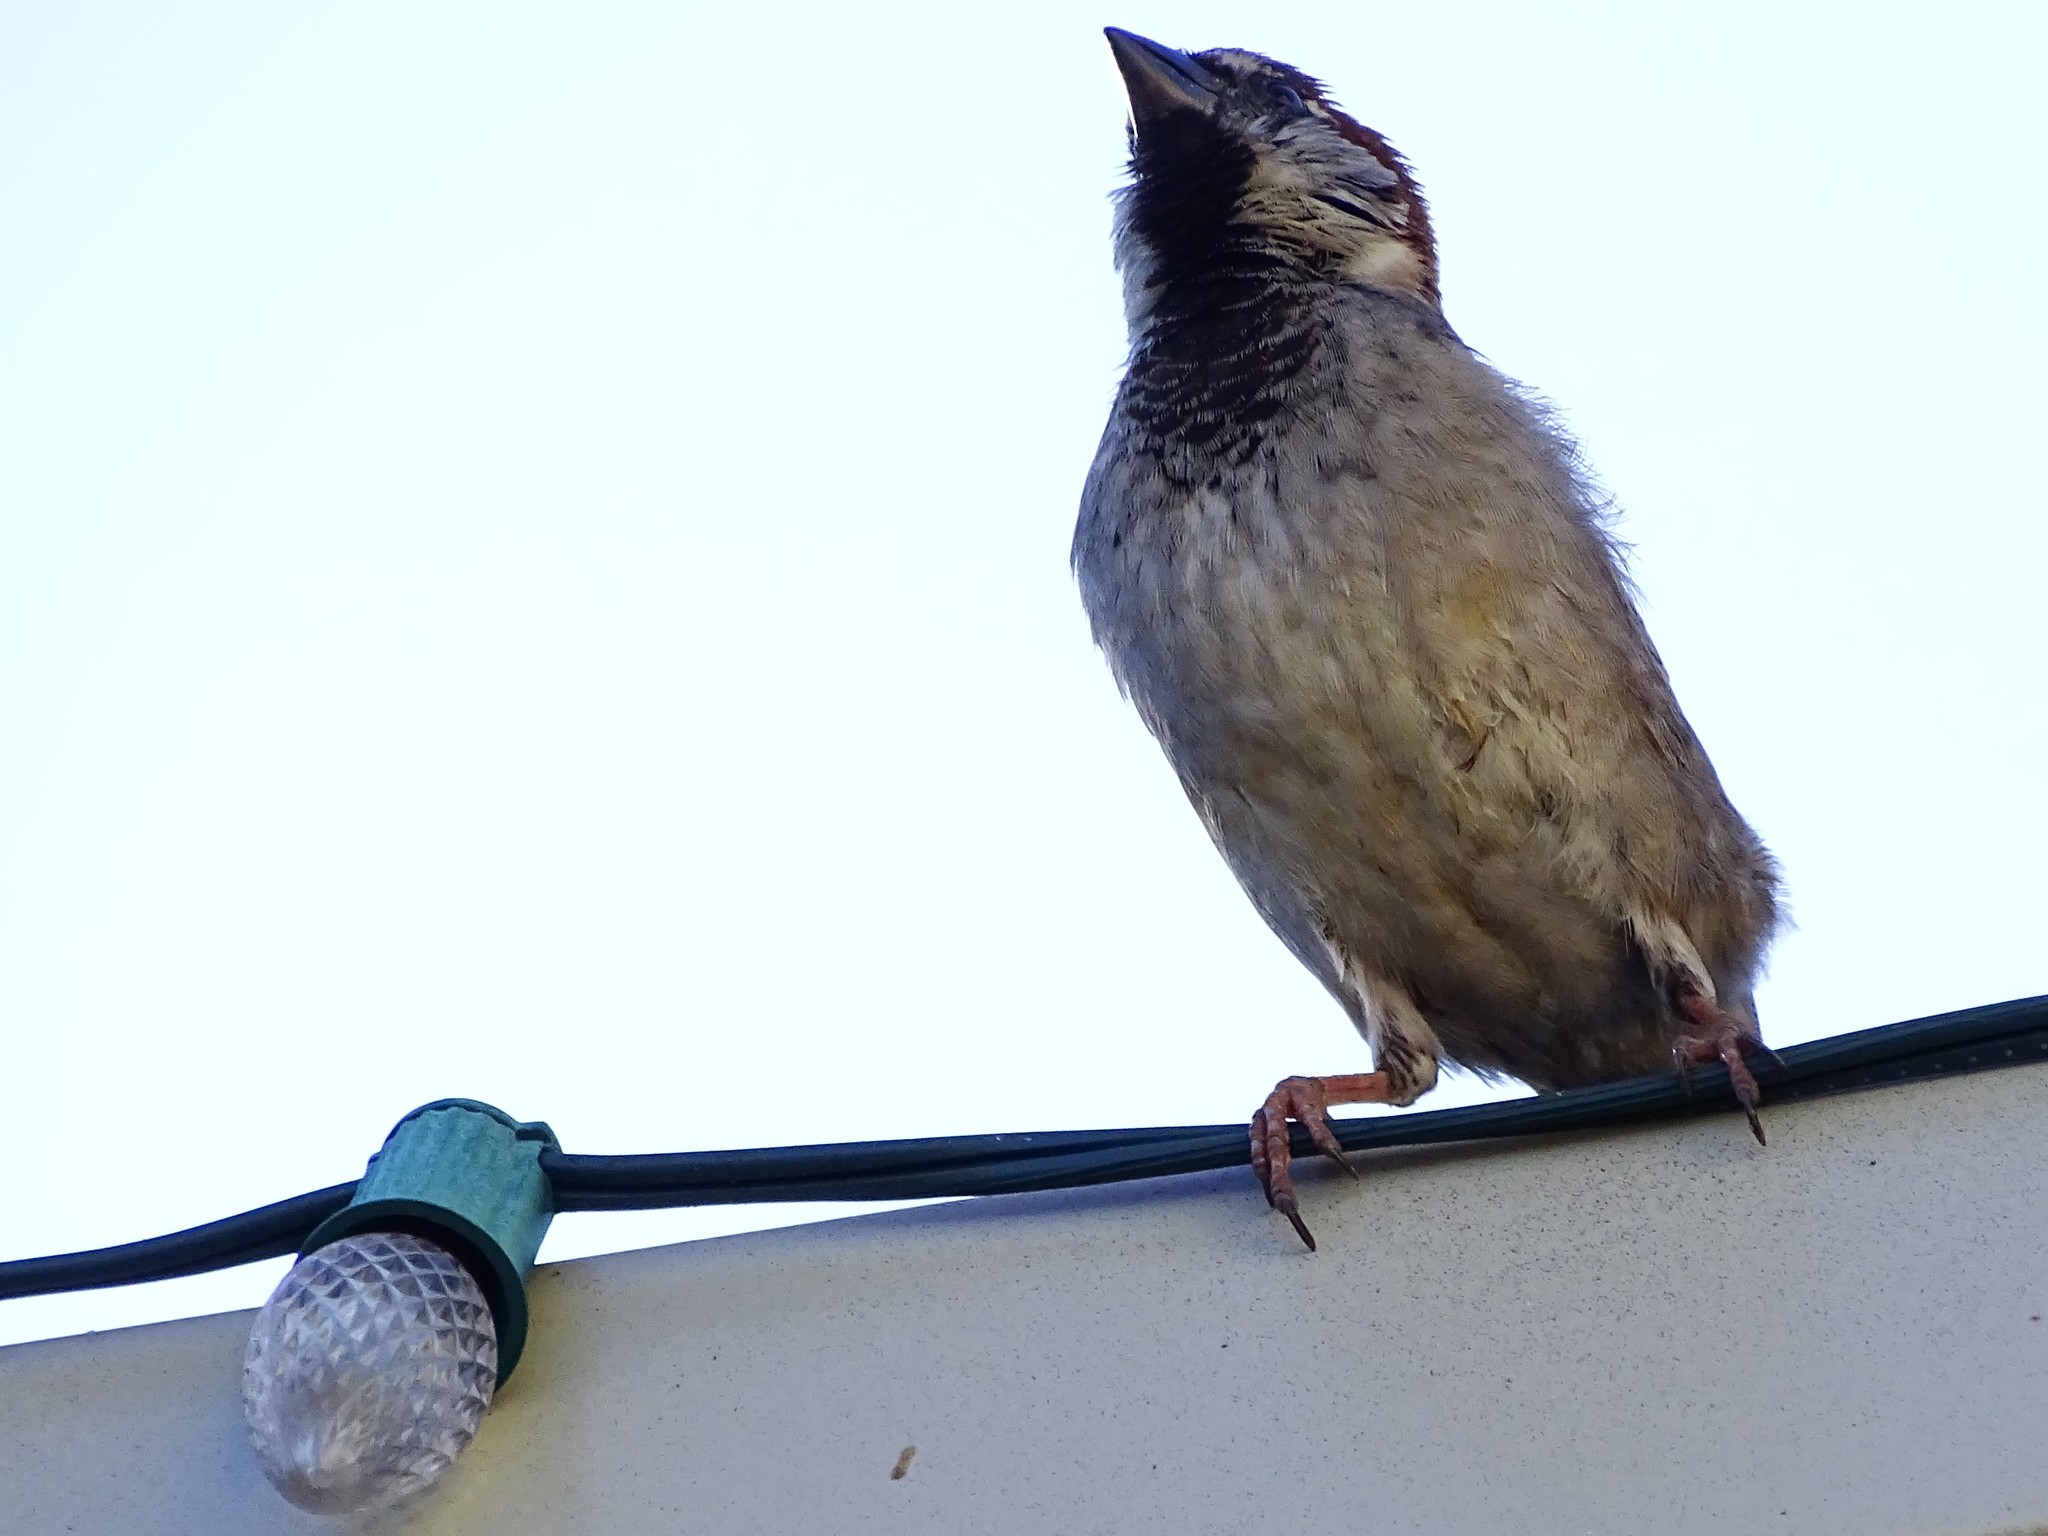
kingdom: Animalia
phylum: Chordata
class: Aves
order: Passeriformes
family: Passeridae
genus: Passer
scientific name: Passer domesticus
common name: House sparrow
